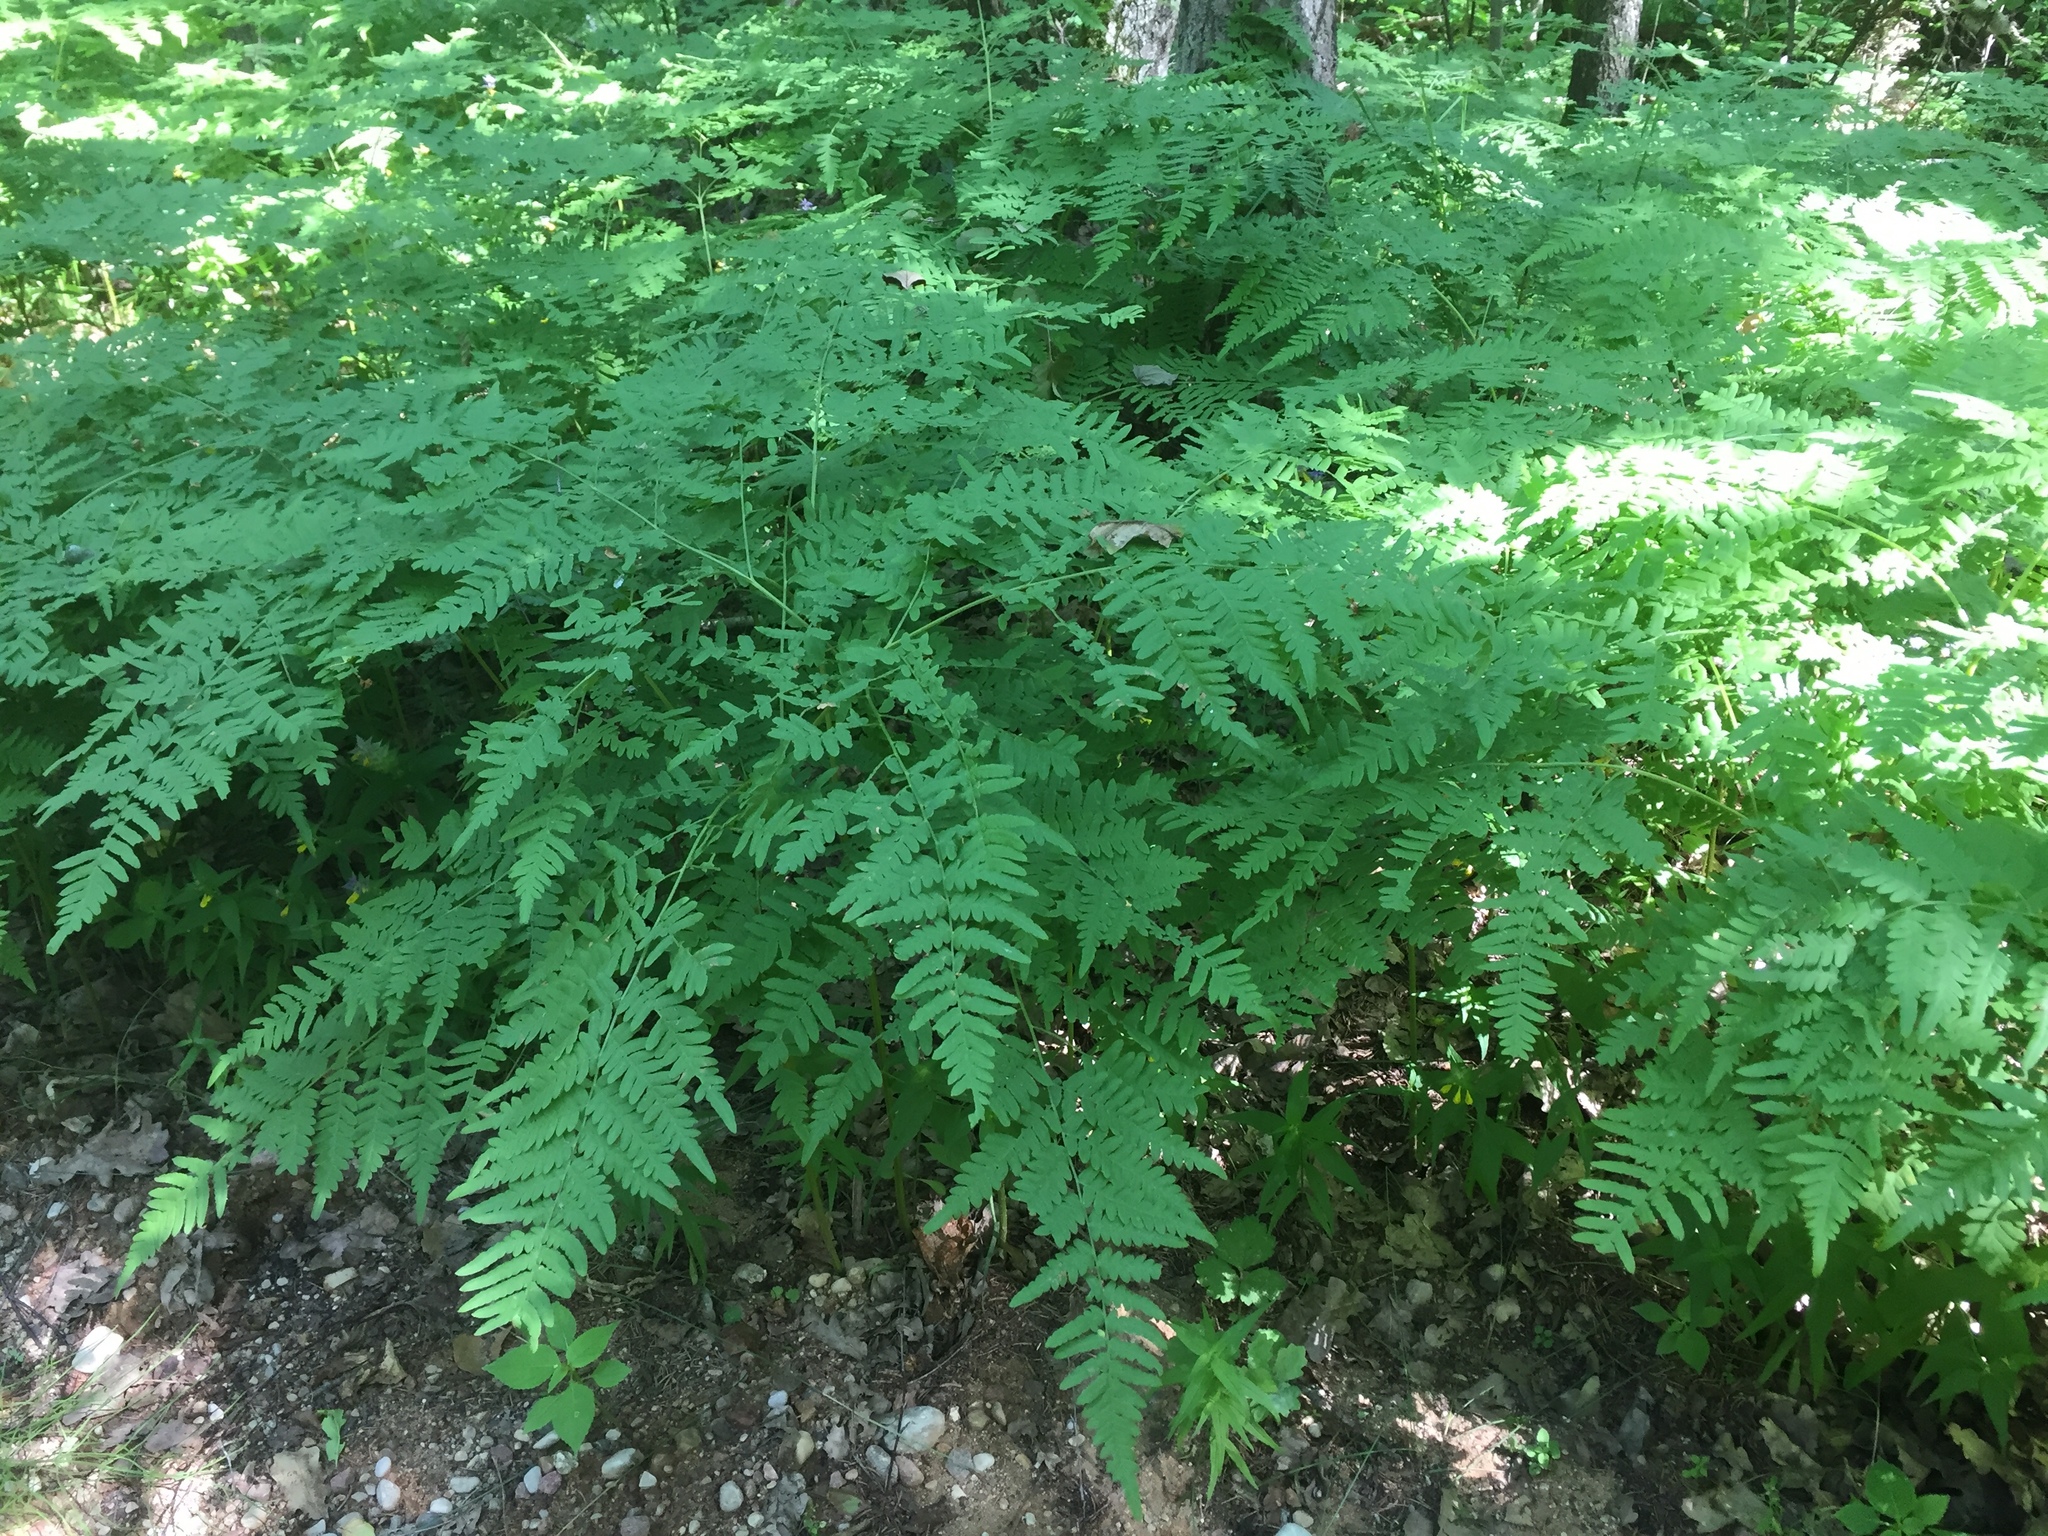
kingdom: Plantae
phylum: Tracheophyta
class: Polypodiopsida
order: Polypodiales
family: Dennstaedtiaceae
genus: Pteridium
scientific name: Pteridium aquilinum
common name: Bracken
